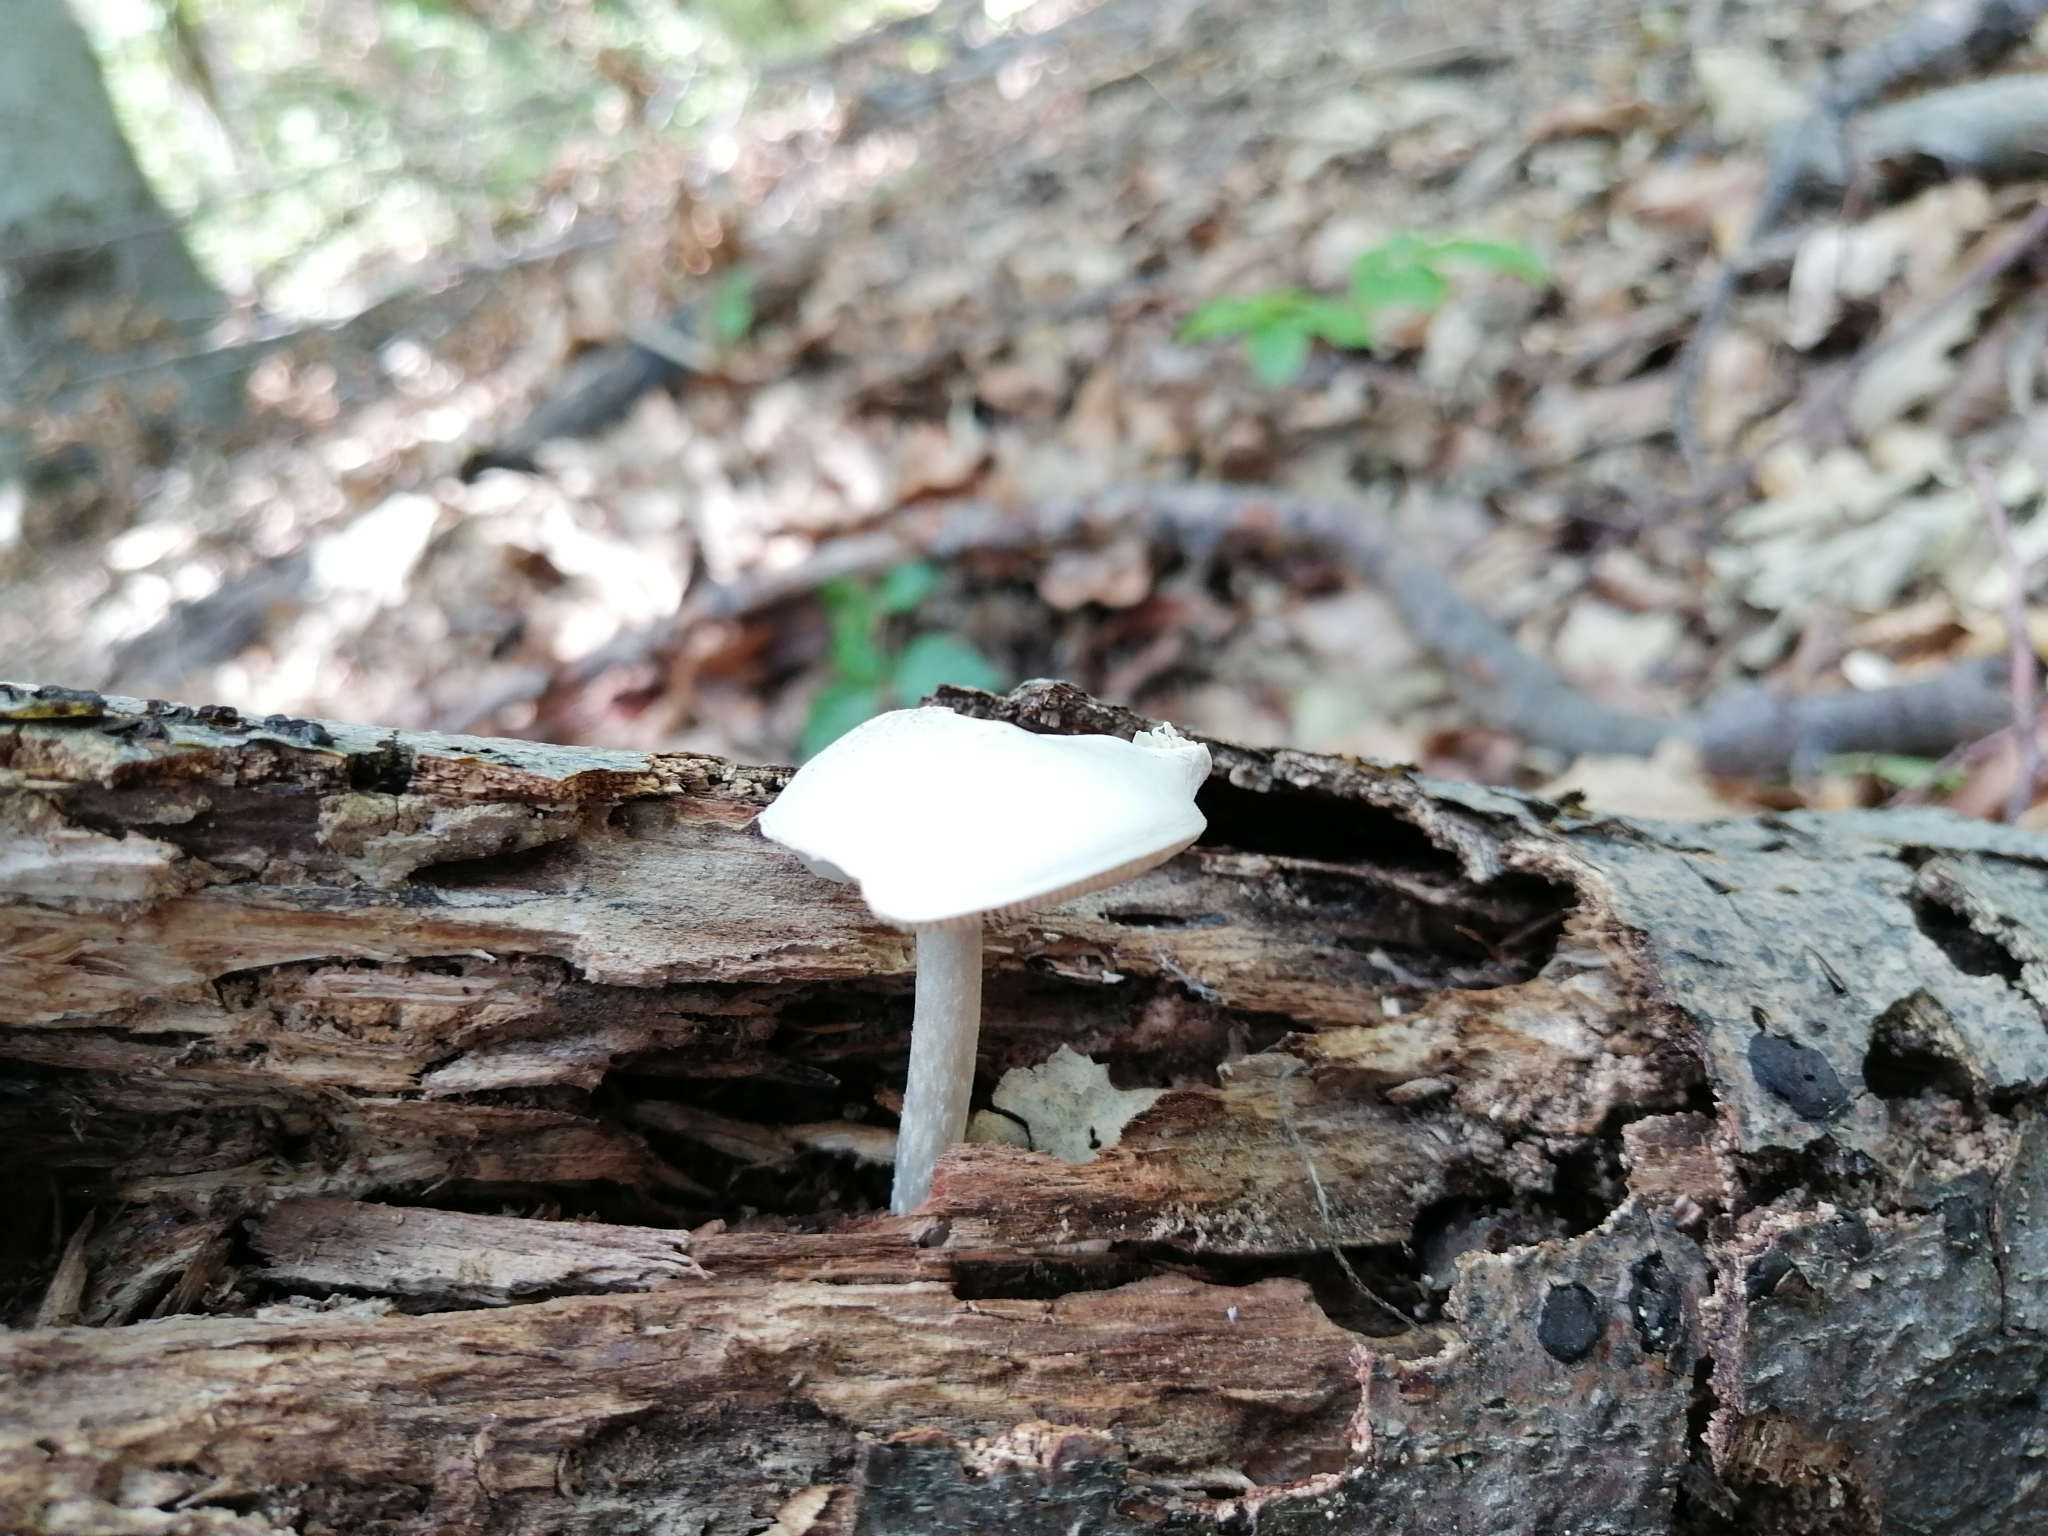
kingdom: Fungi
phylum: Basidiomycota
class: Agaricomycetes
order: Agaricales
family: Pluteaceae
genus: Pluteus
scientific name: Pluteus pellitus
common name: Ghost shield
